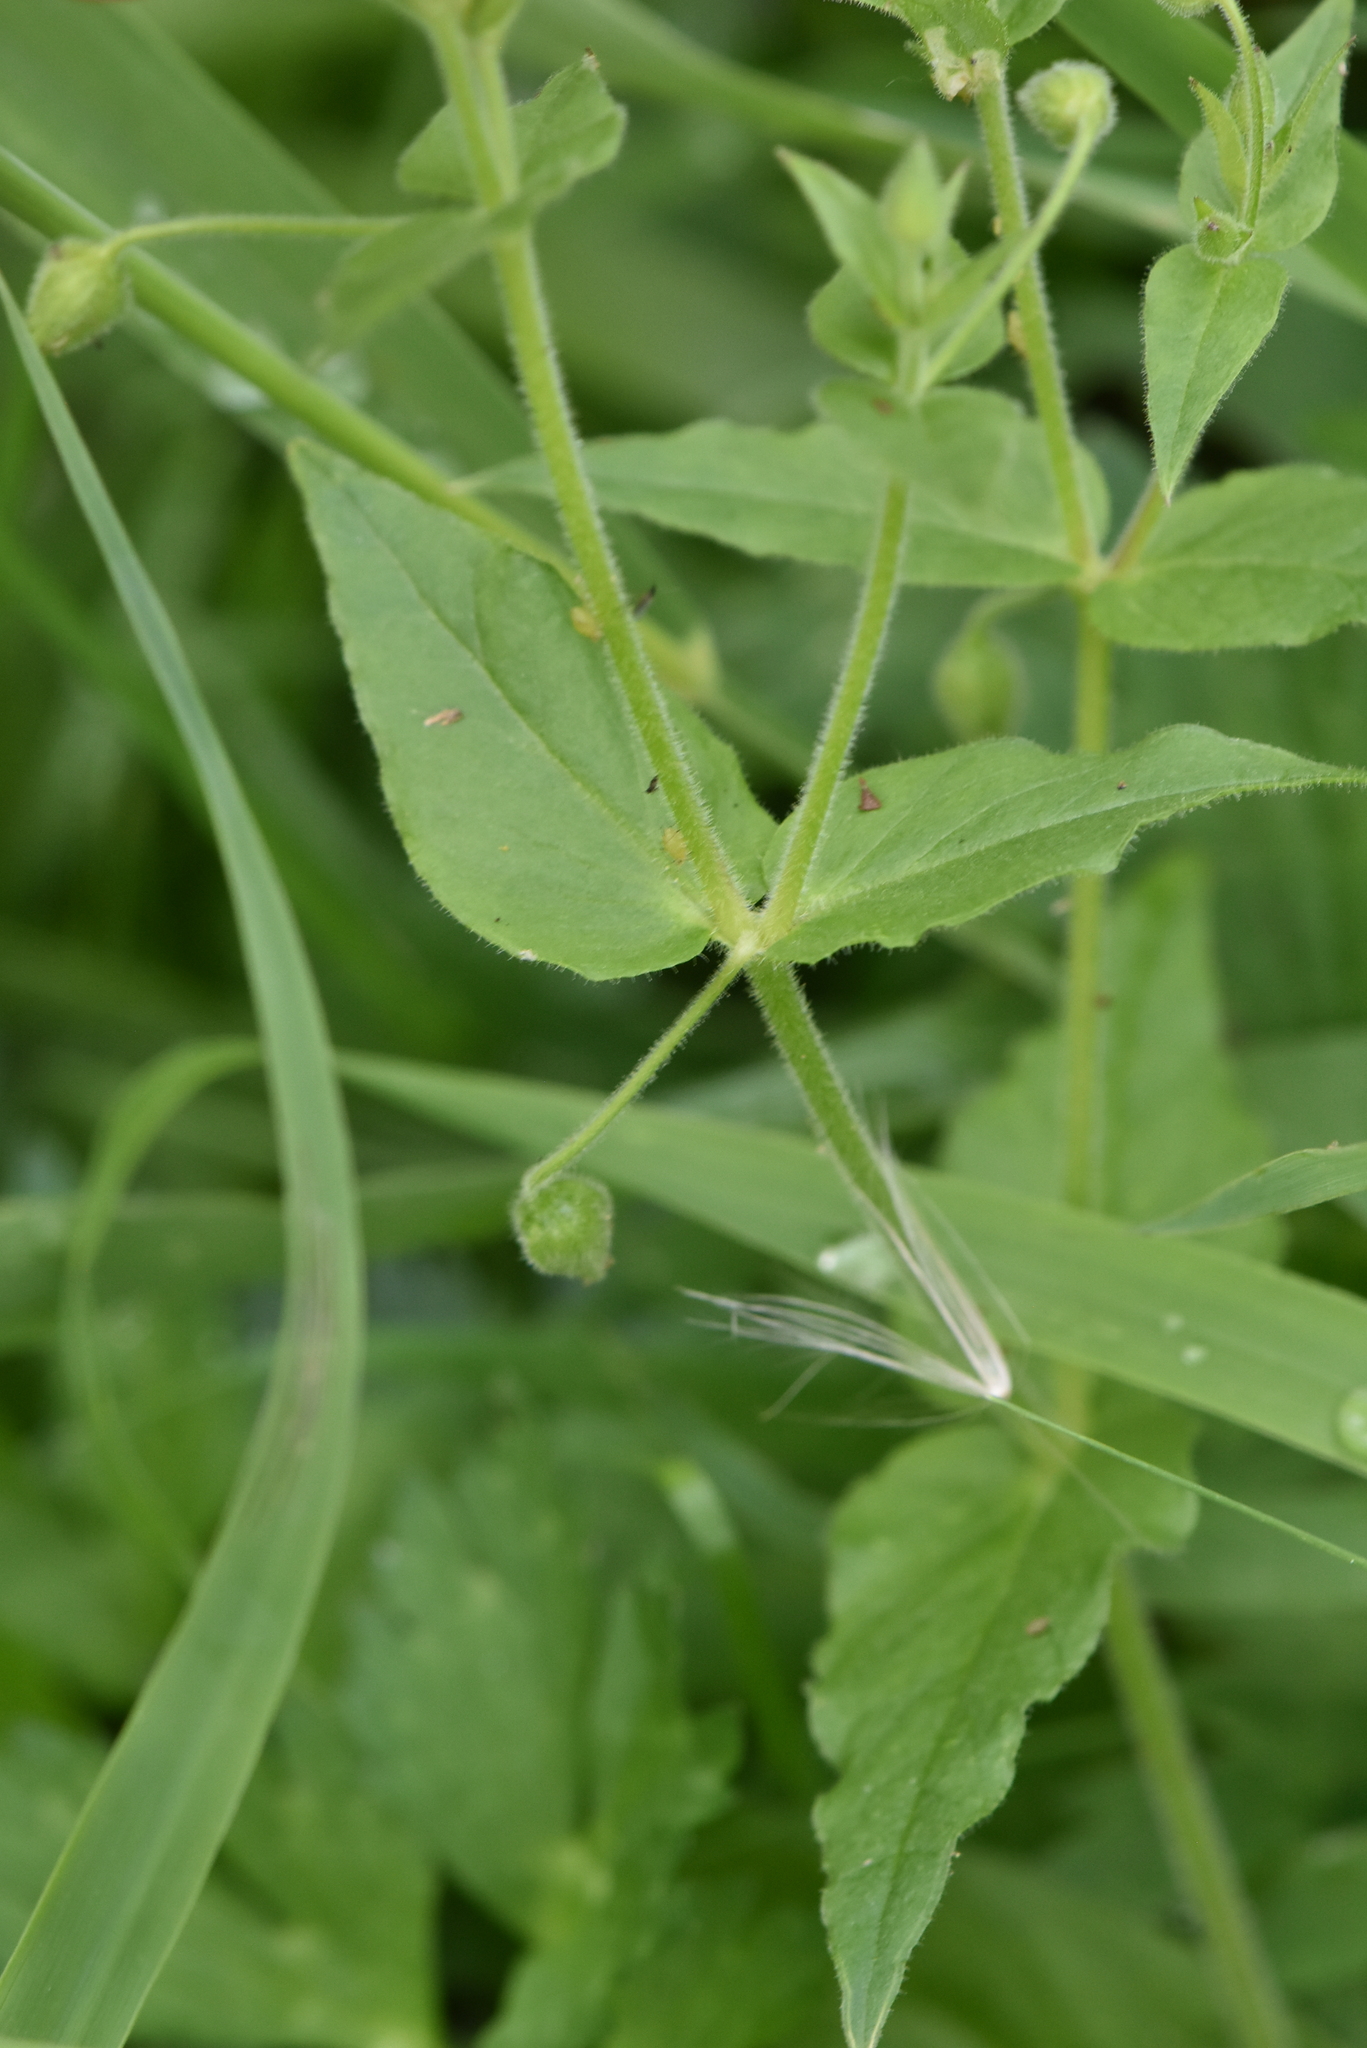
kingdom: Plantae
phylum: Tracheophyta
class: Magnoliopsida
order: Caryophyllales
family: Caryophyllaceae
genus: Stellaria
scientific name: Stellaria aquatica
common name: Water chickweed
